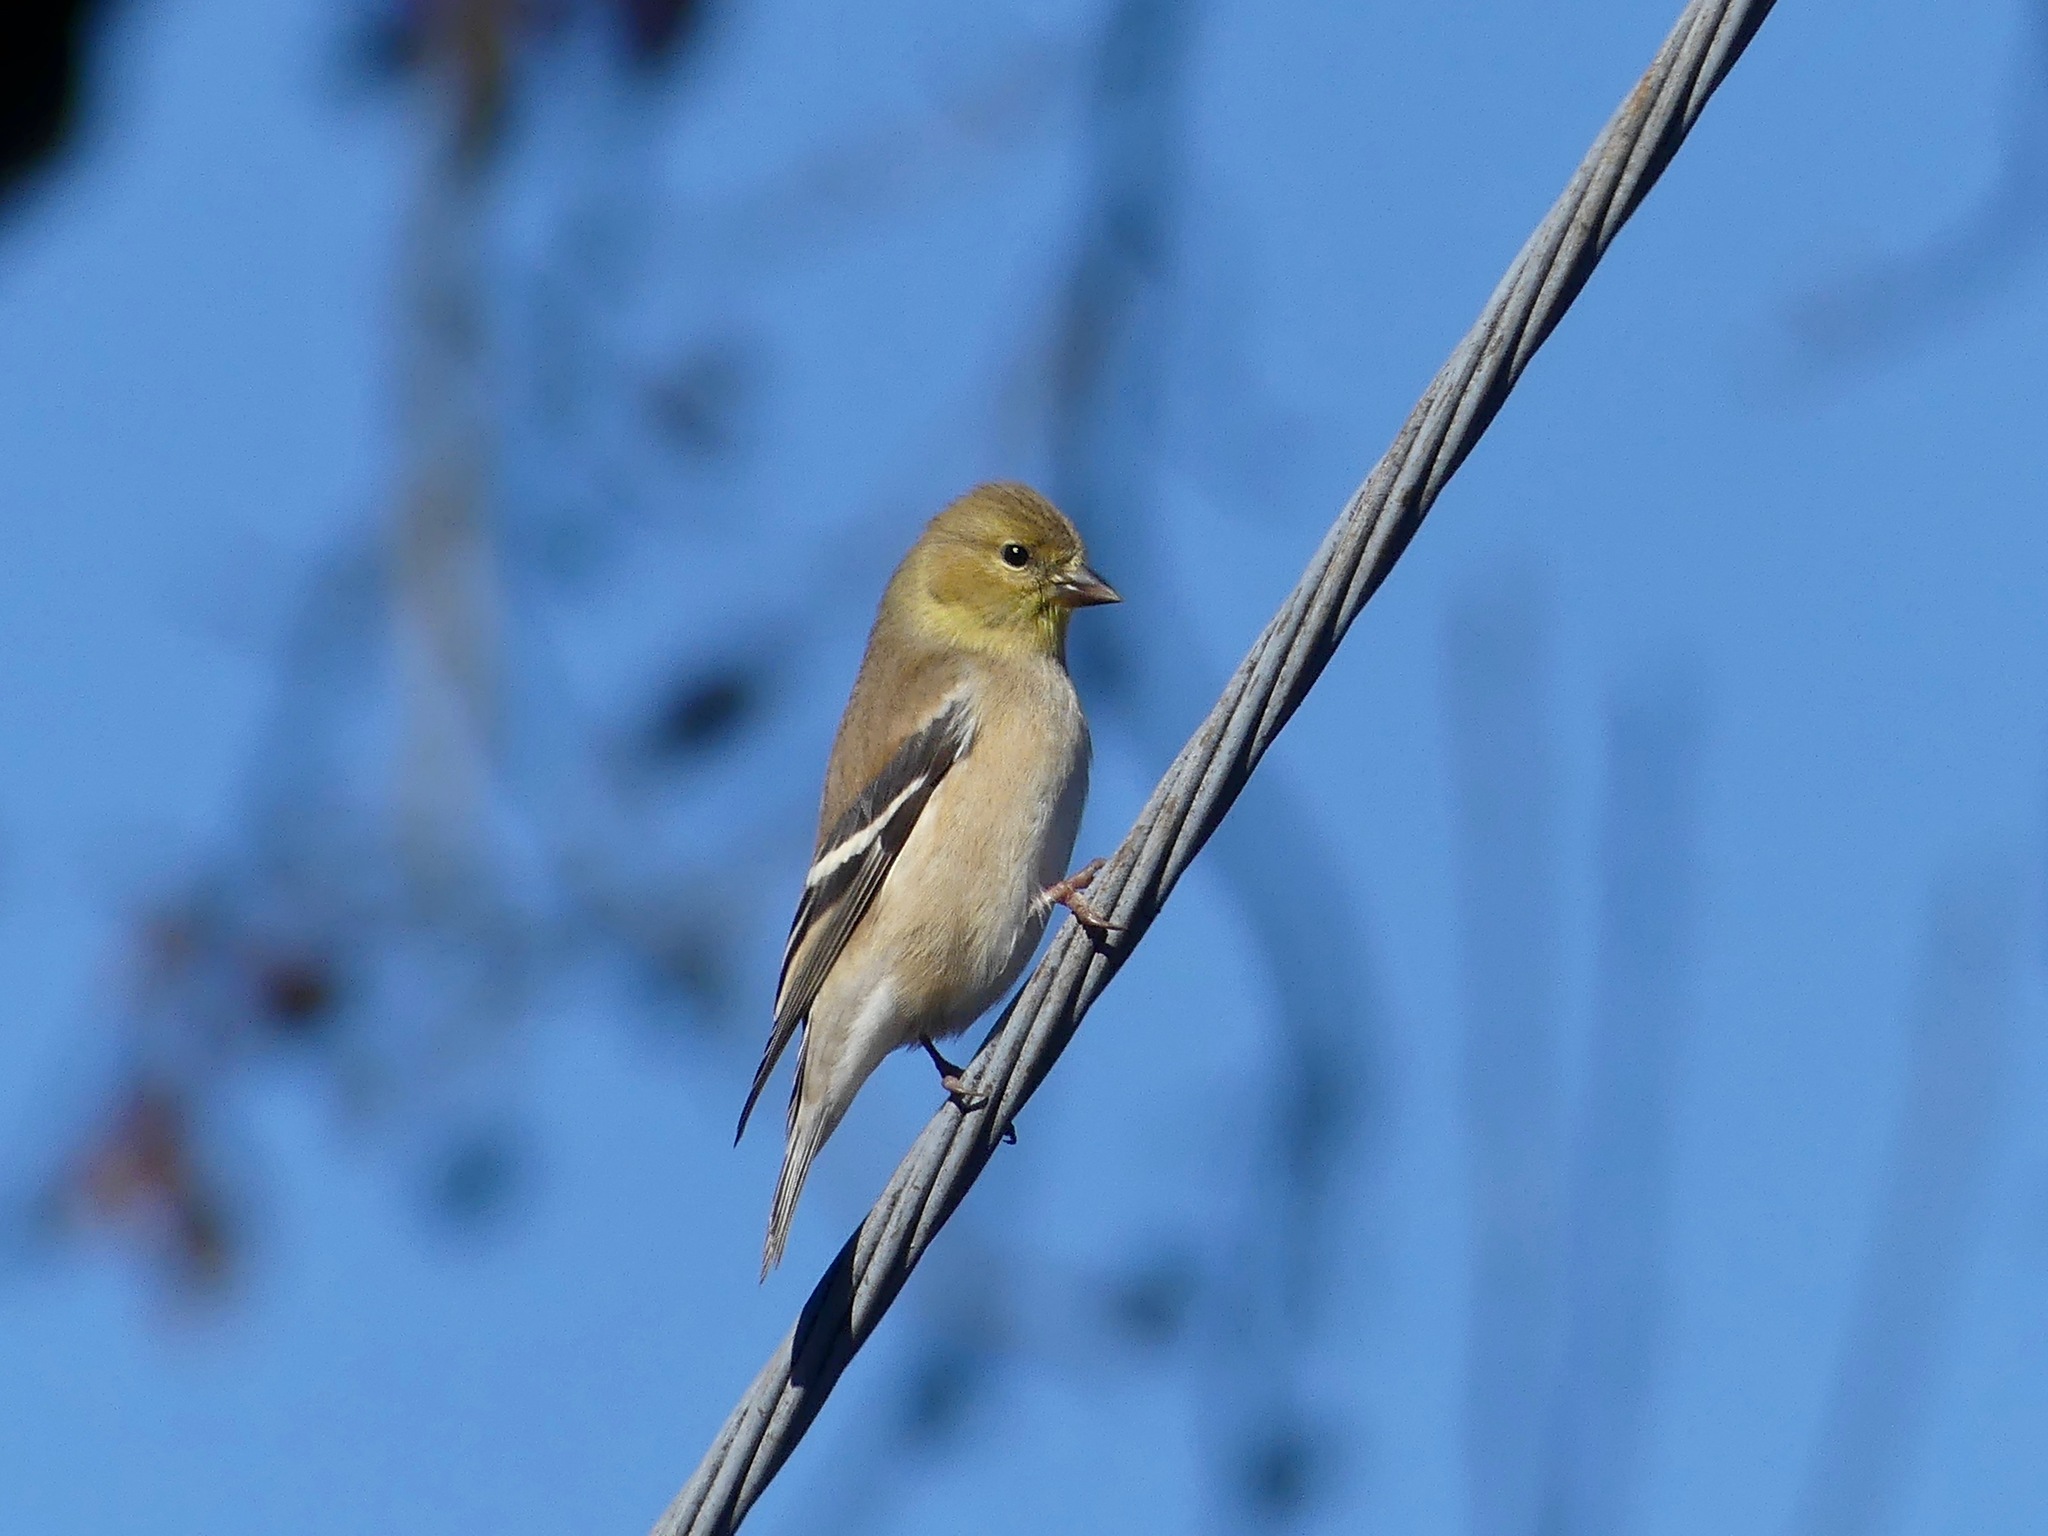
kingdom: Animalia
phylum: Chordata
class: Aves
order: Passeriformes
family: Fringillidae
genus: Spinus
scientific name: Spinus tristis
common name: American goldfinch
